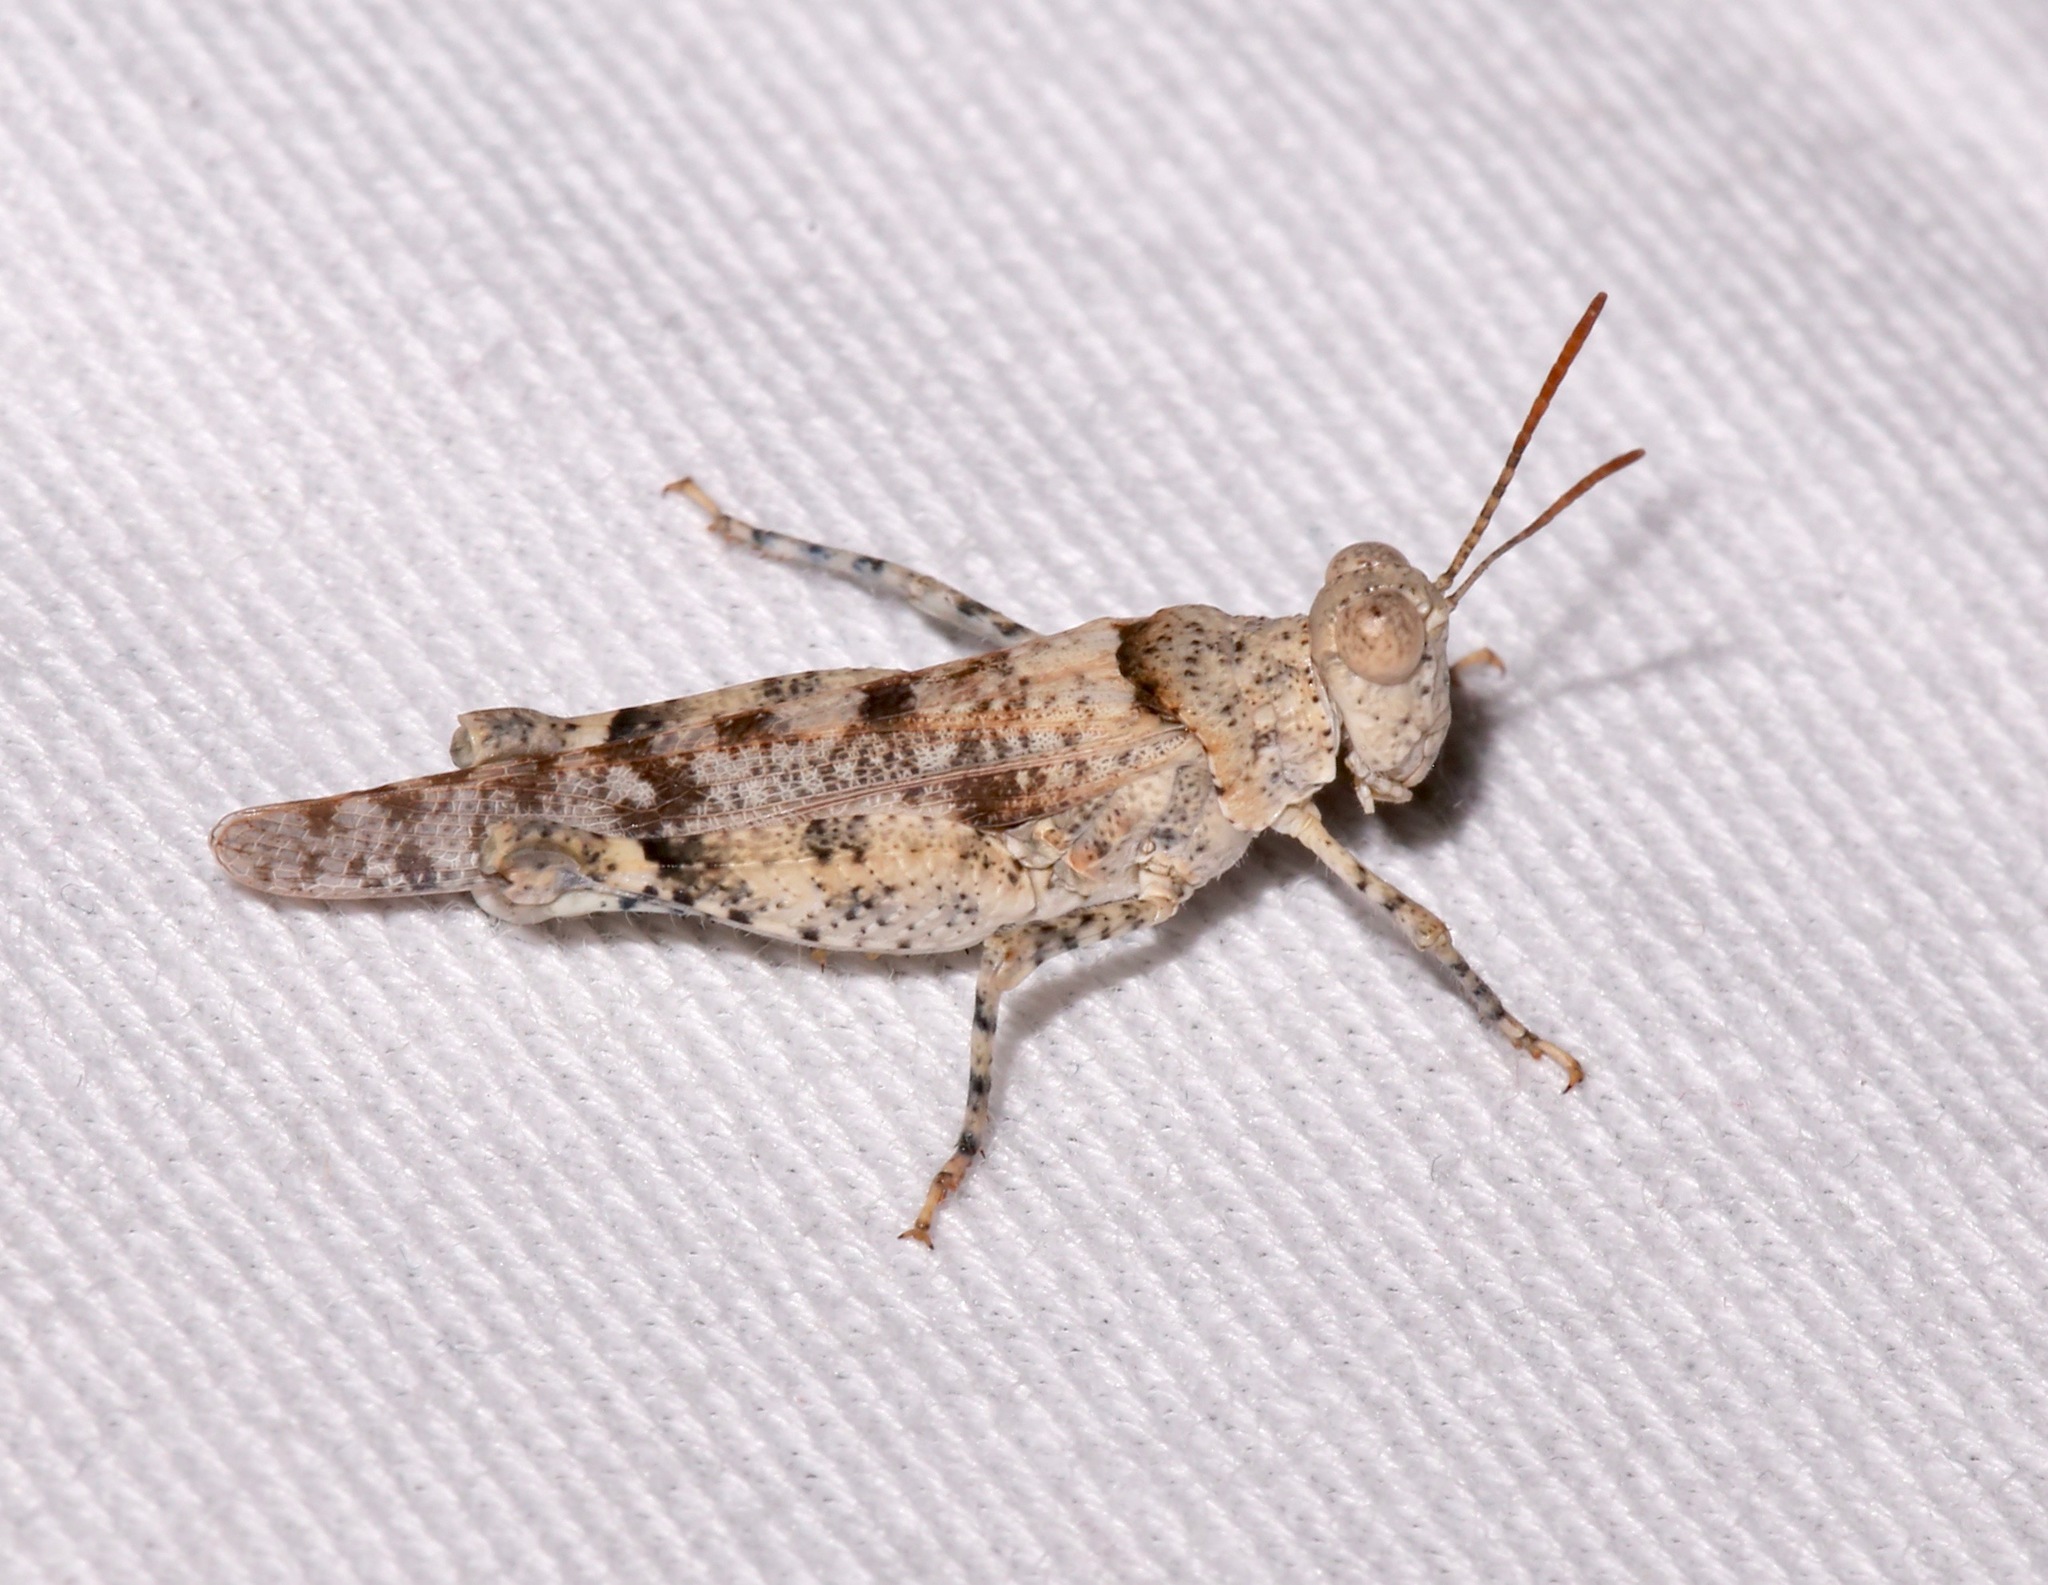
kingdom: Animalia
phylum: Arthropoda
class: Insecta
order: Orthoptera
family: Acrididae
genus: Cibolacris
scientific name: Cibolacris parviceps
